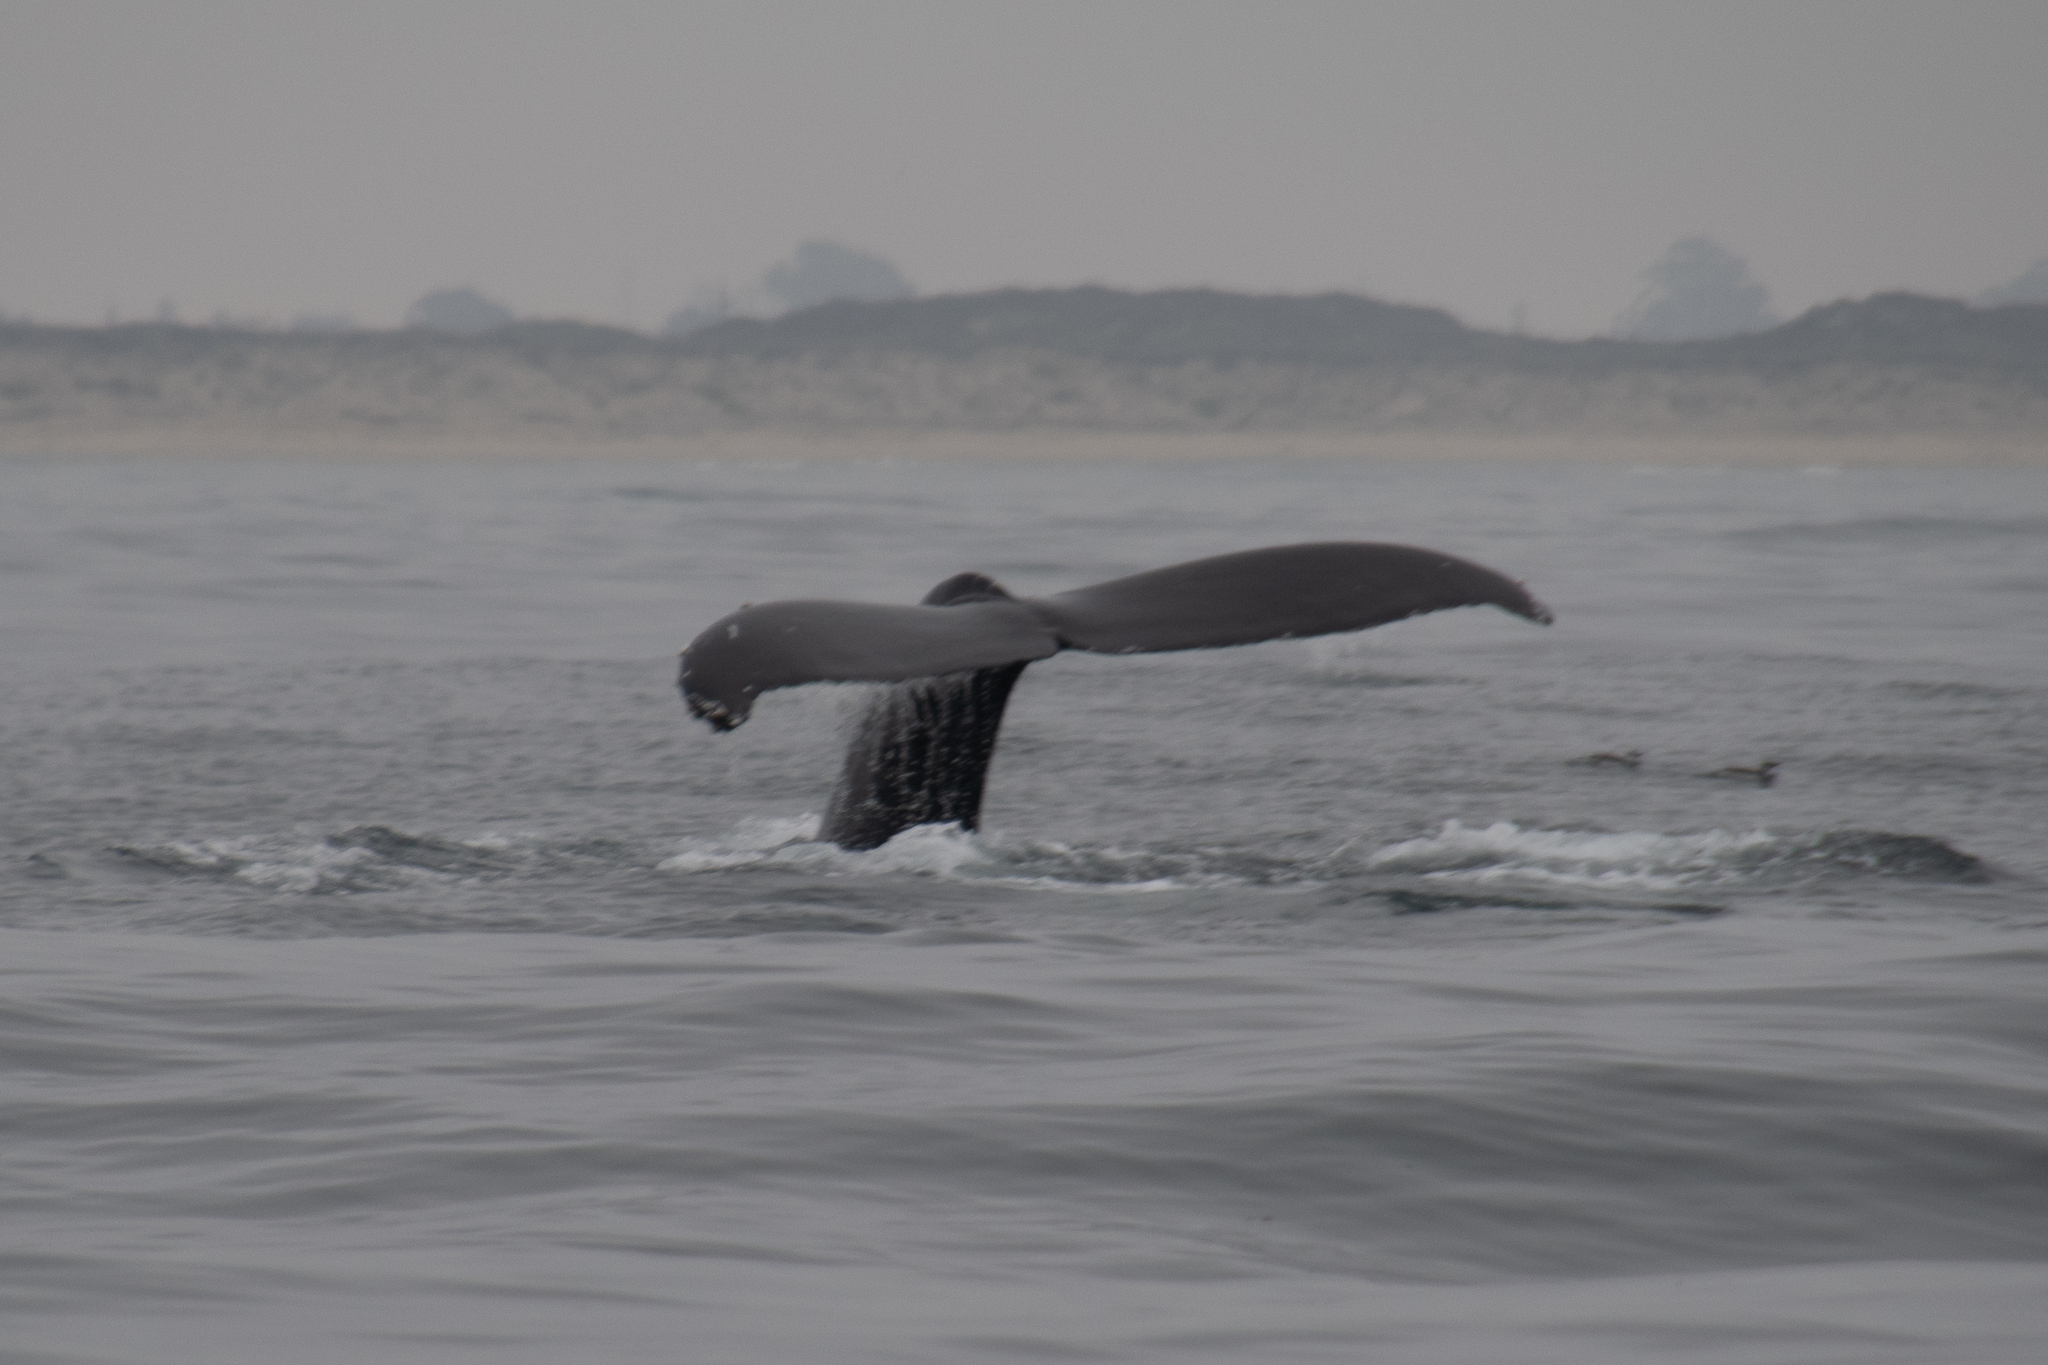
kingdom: Animalia
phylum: Chordata
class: Mammalia
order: Cetacea
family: Balaenopteridae
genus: Megaptera
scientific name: Megaptera novaeangliae
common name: Humpback whale
